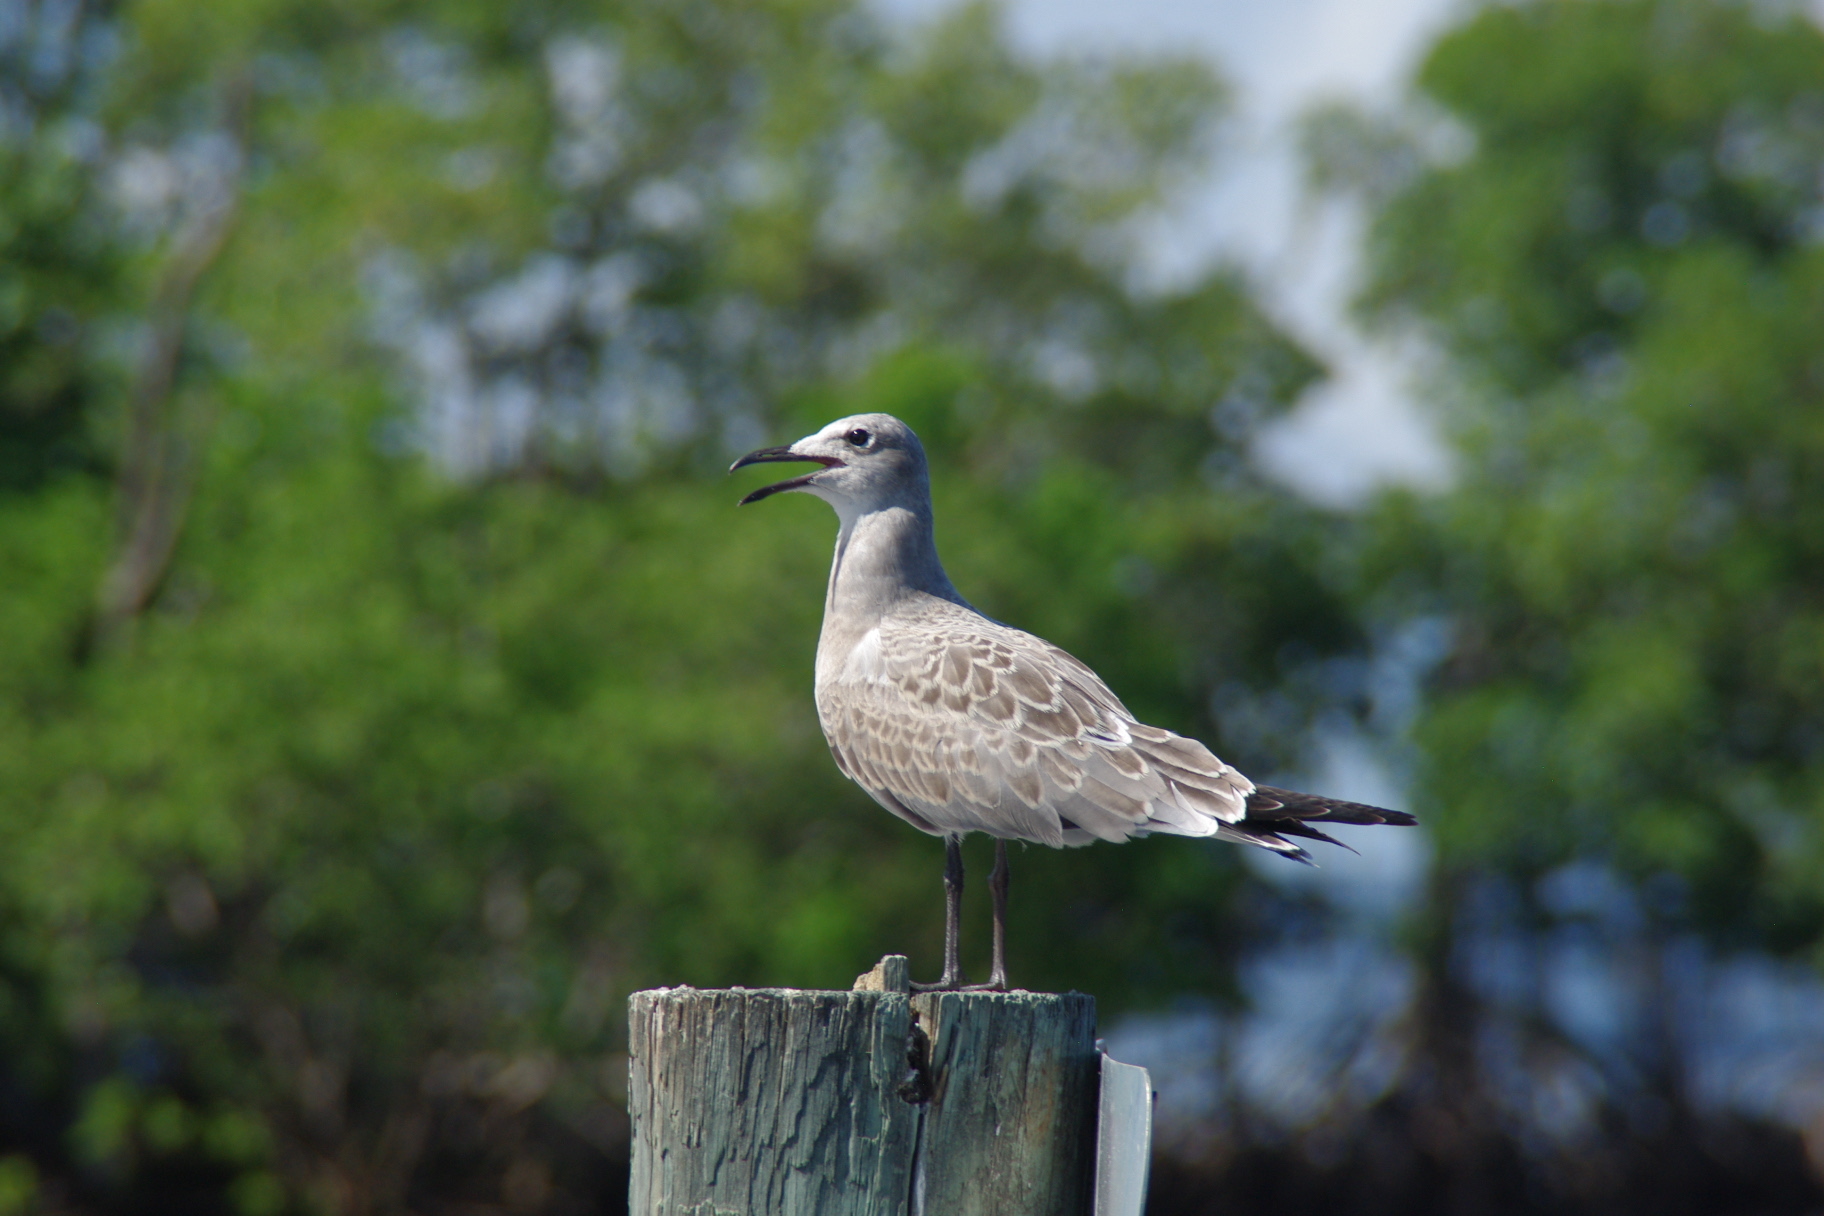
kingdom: Animalia
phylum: Chordata
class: Aves
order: Charadriiformes
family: Laridae
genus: Leucophaeus
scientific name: Leucophaeus atricilla
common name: Laughing gull
